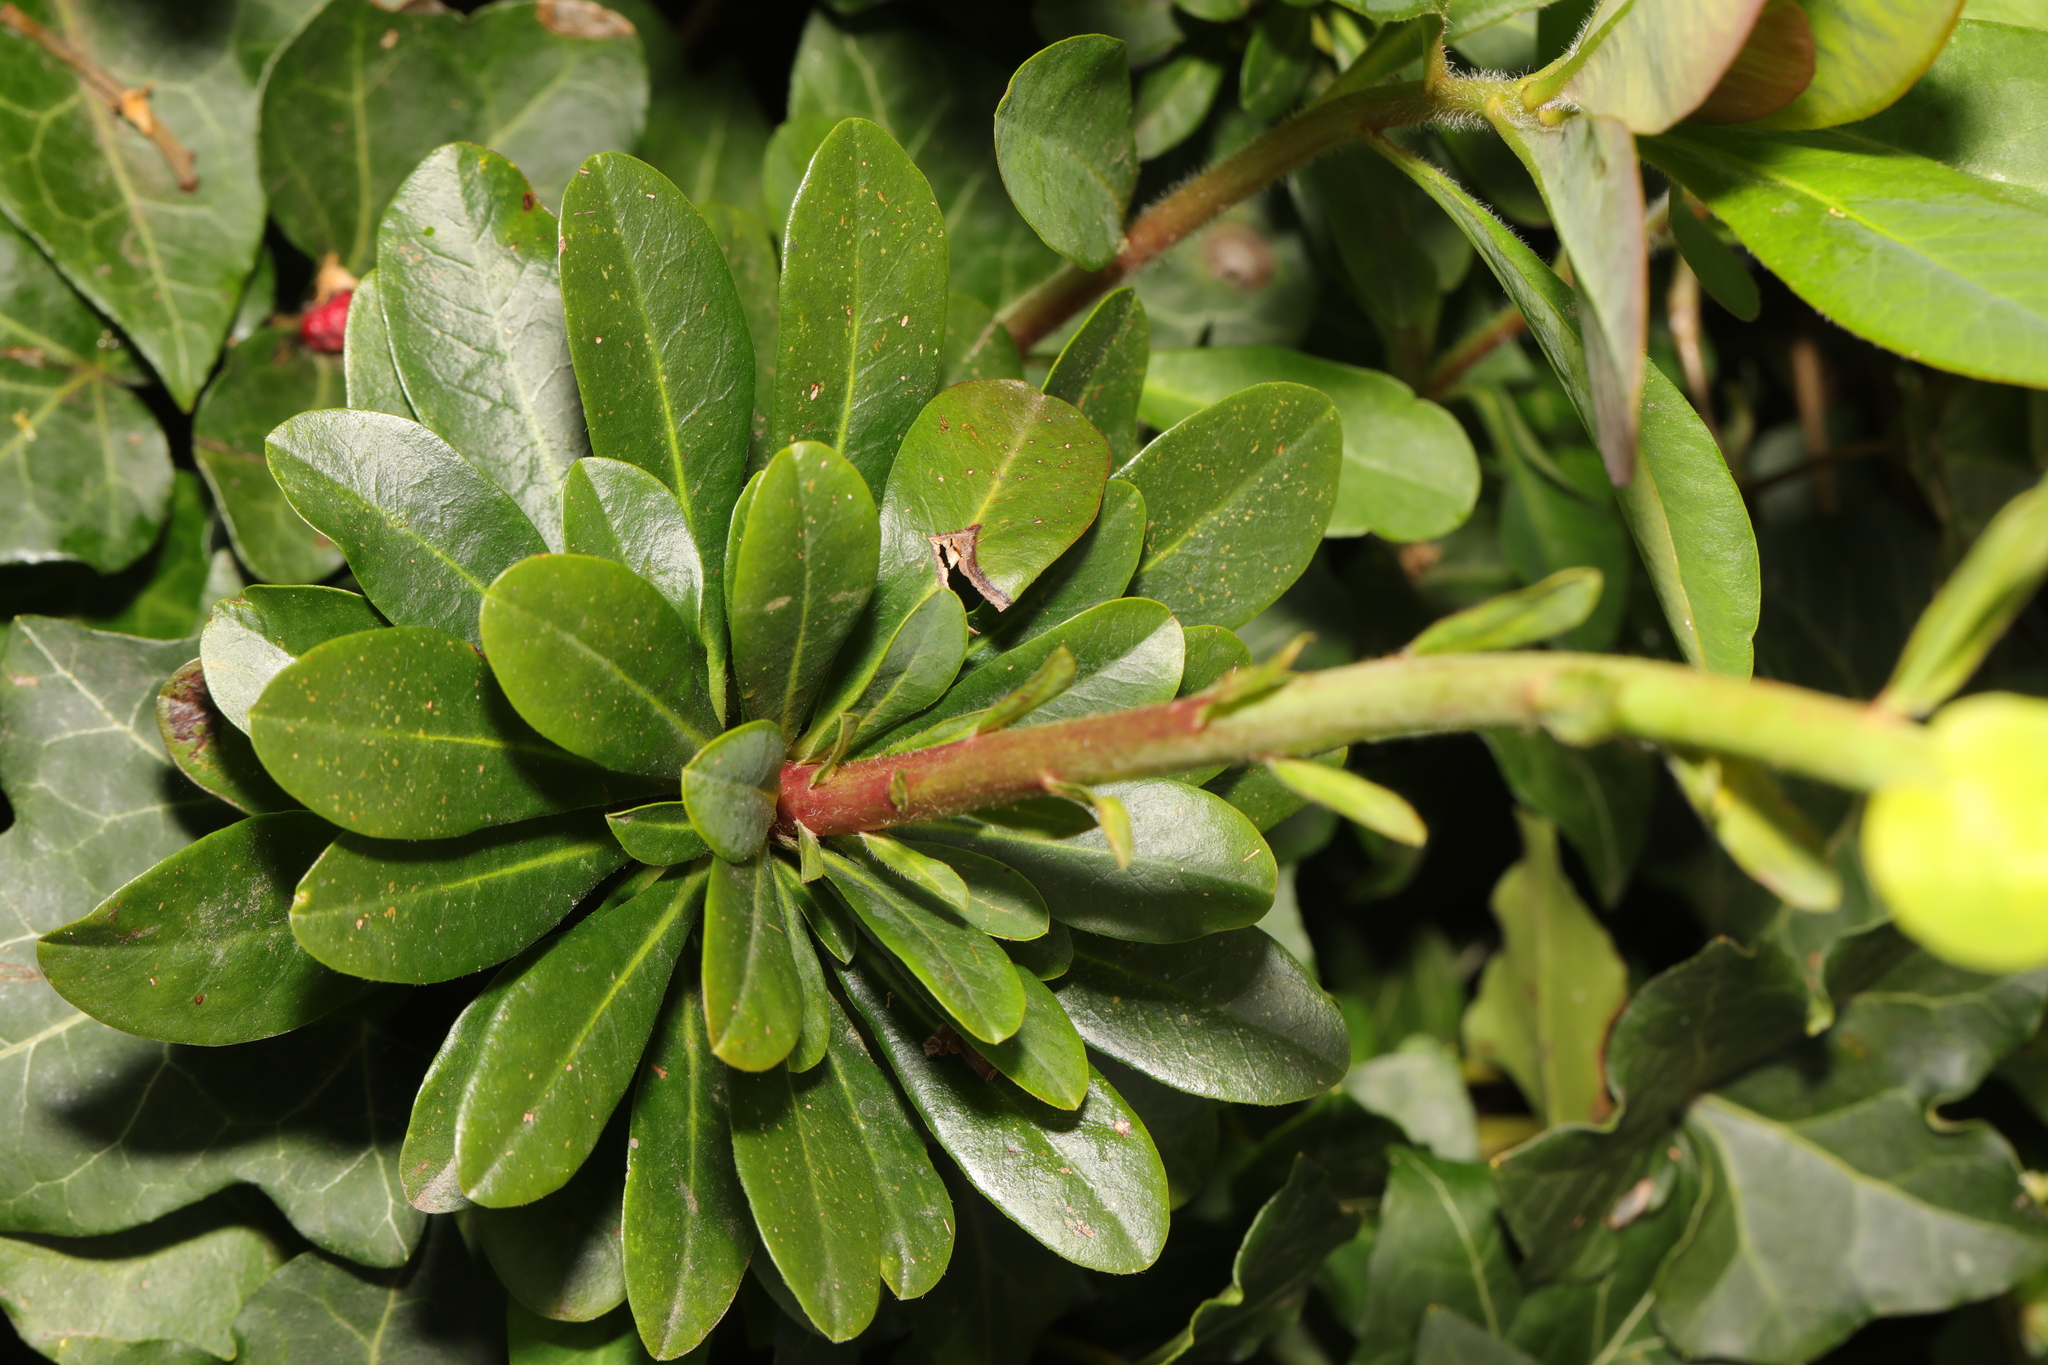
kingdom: Plantae
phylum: Tracheophyta
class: Magnoliopsida
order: Malpighiales
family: Euphorbiaceae
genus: Euphorbia
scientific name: Euphorbia amygdaloides
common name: Wood spurge
